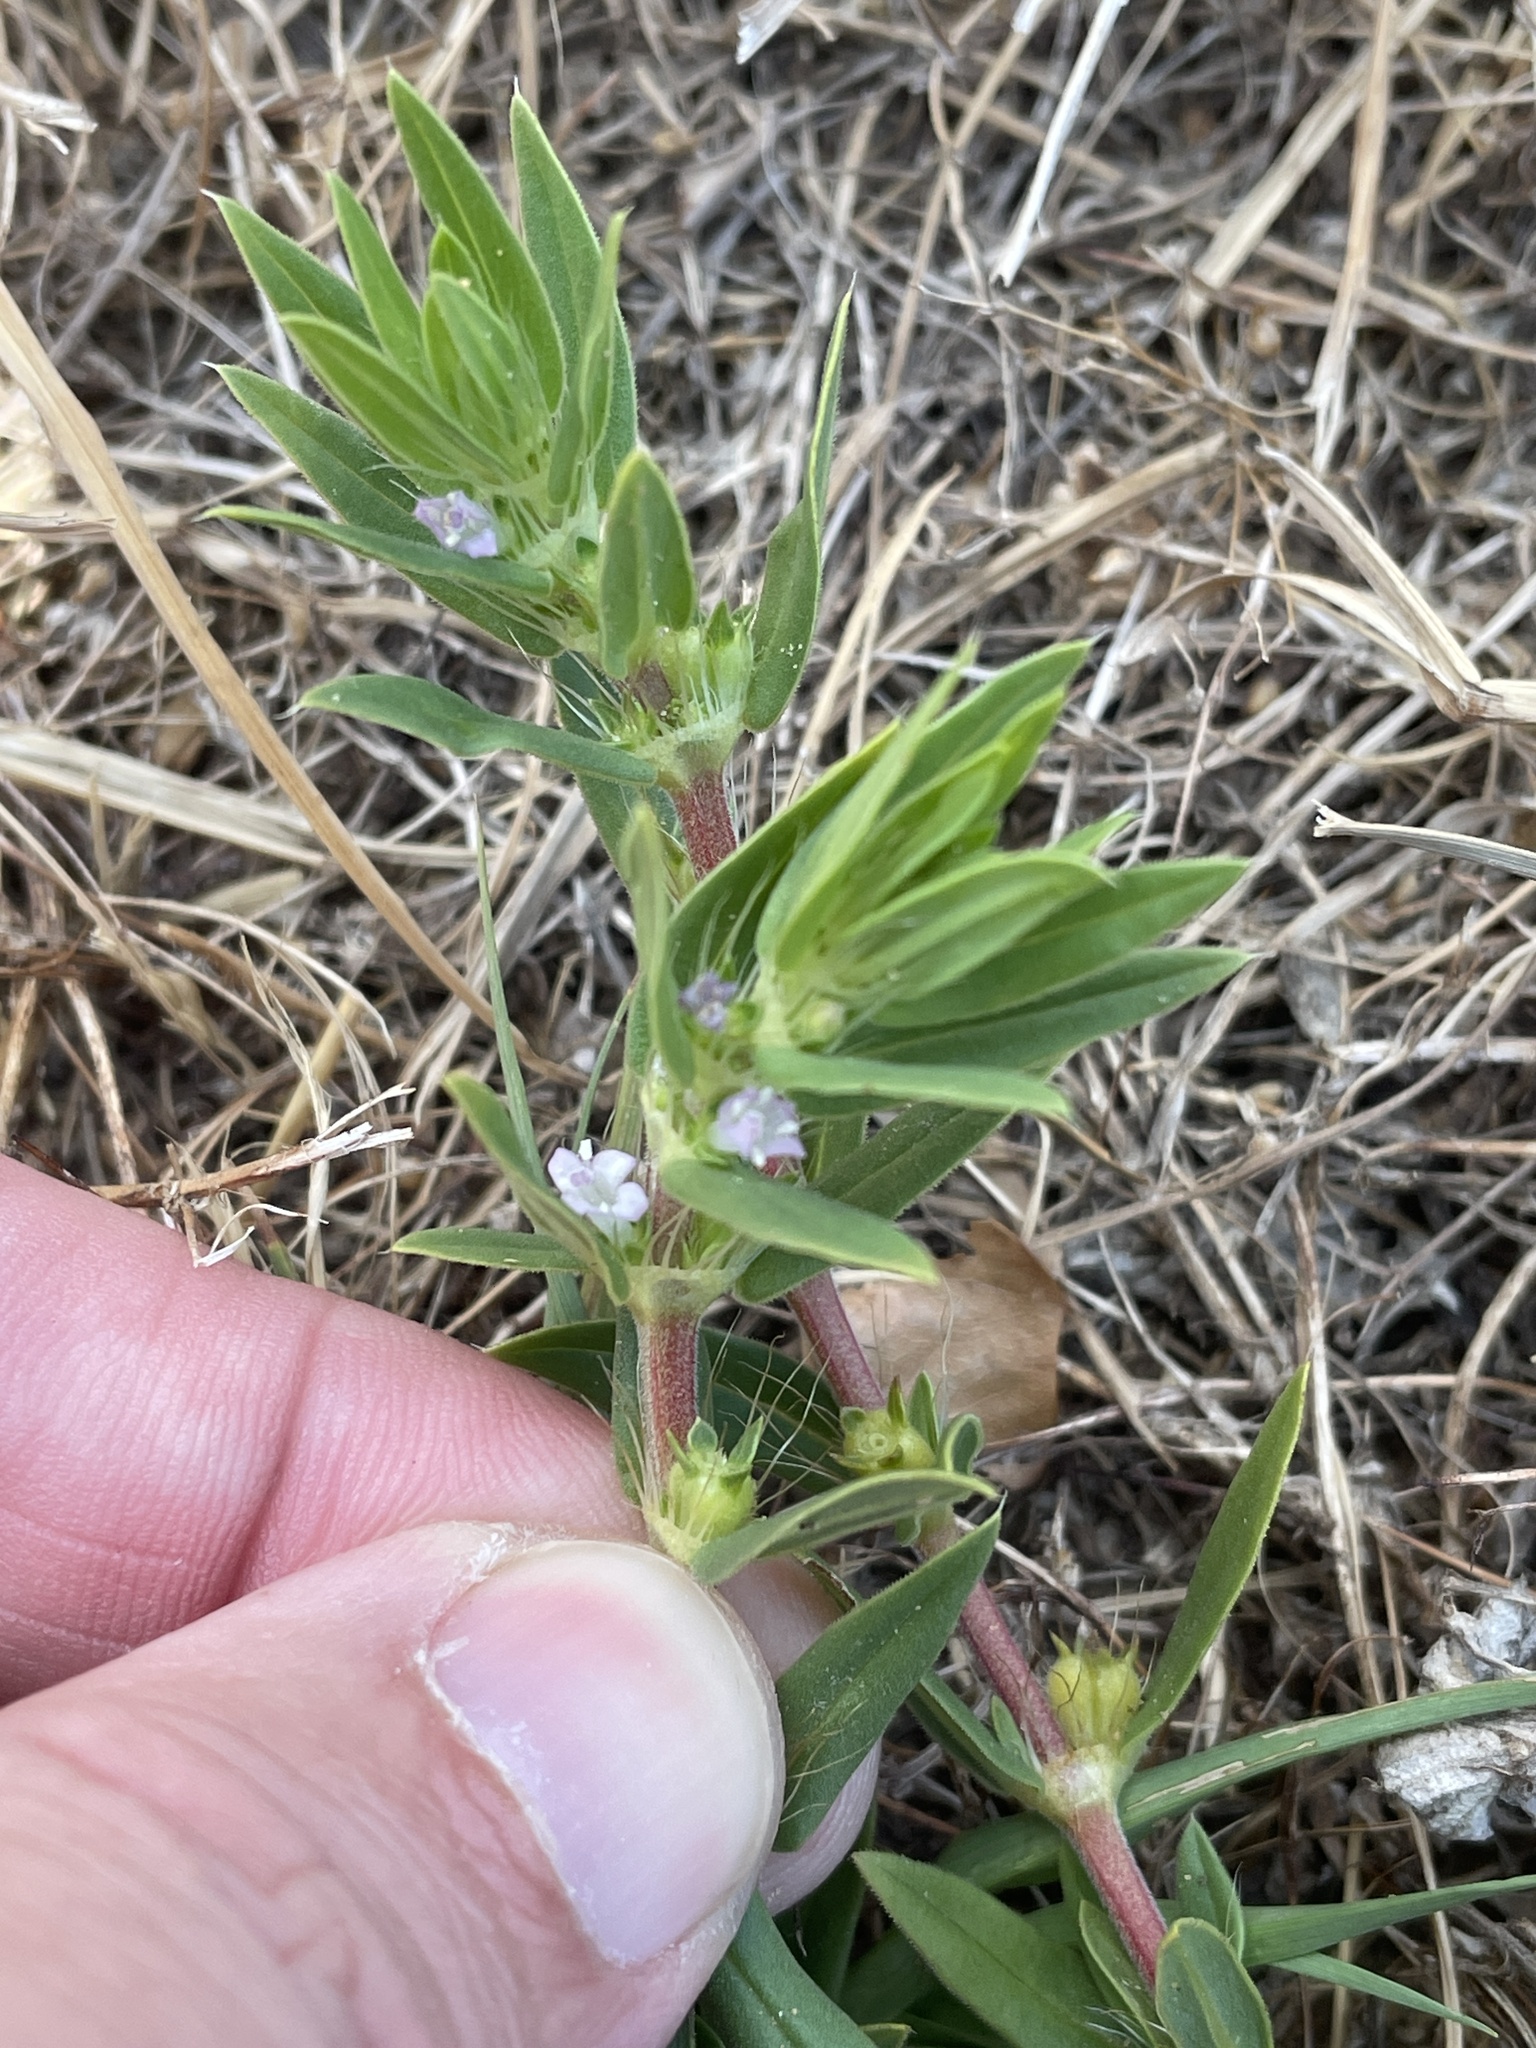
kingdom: Plantae
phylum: Tracheophyta
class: Magnoliopsida
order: Gentianales
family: Rubiaceae
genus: Hexasepalum
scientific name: Hexasepalum teres
